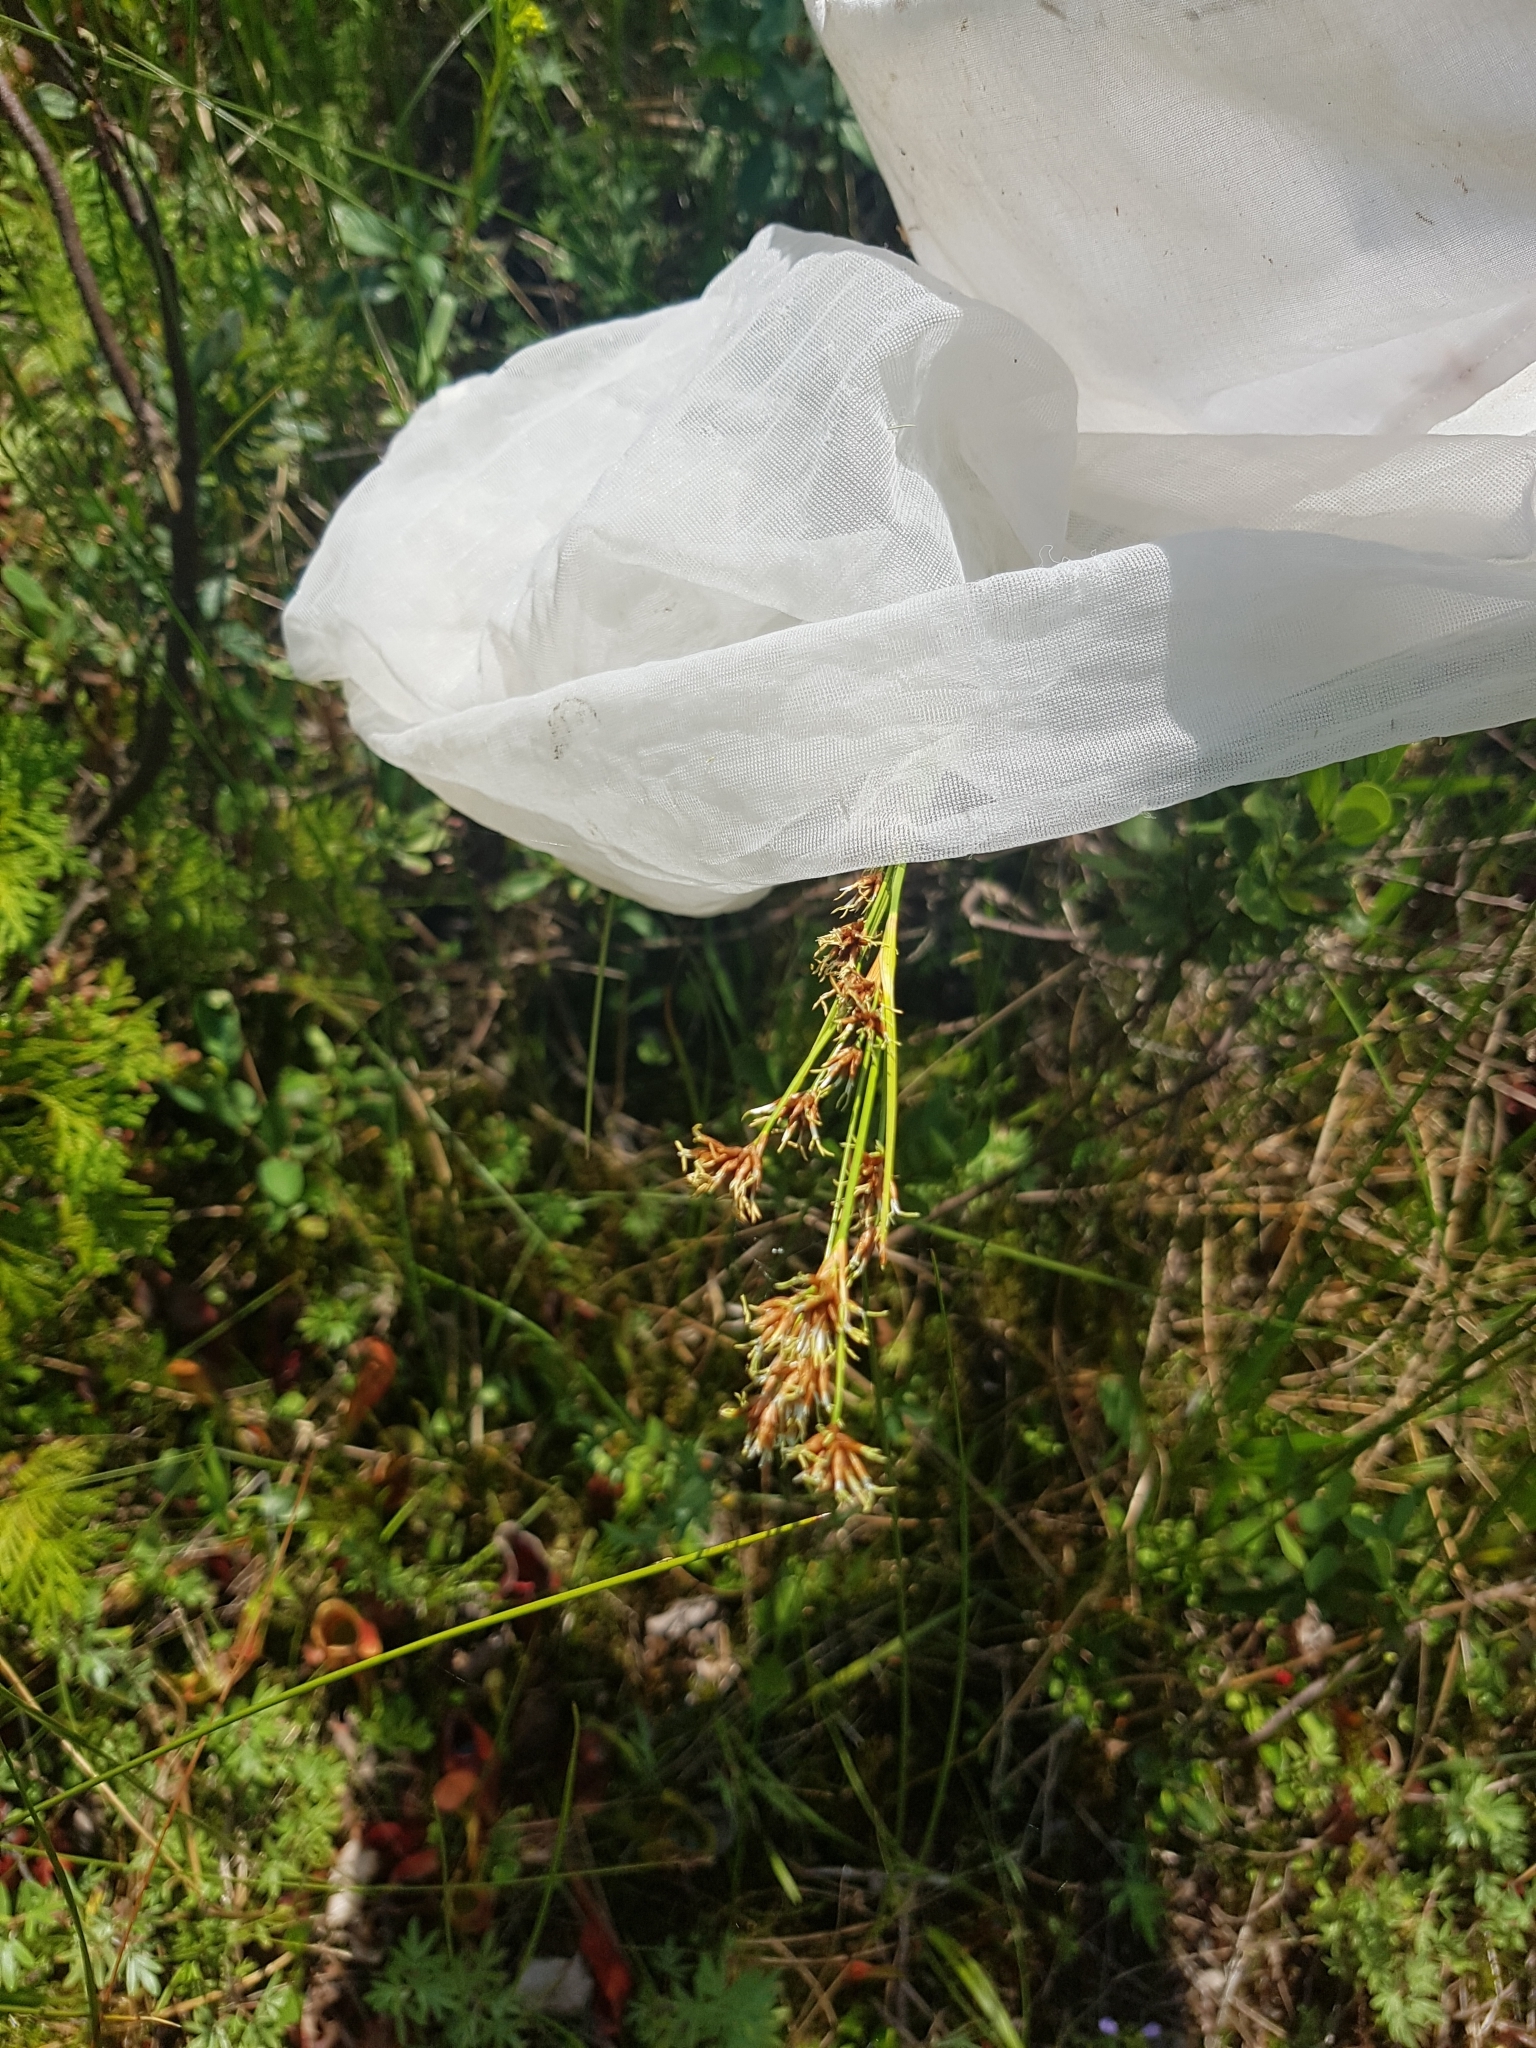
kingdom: Plantae
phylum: Tracheophyta
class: Liliopsida
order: Poales
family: Cyperaceae
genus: Cladium
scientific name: Cladium mariscoides
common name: Smooth sawgrass
